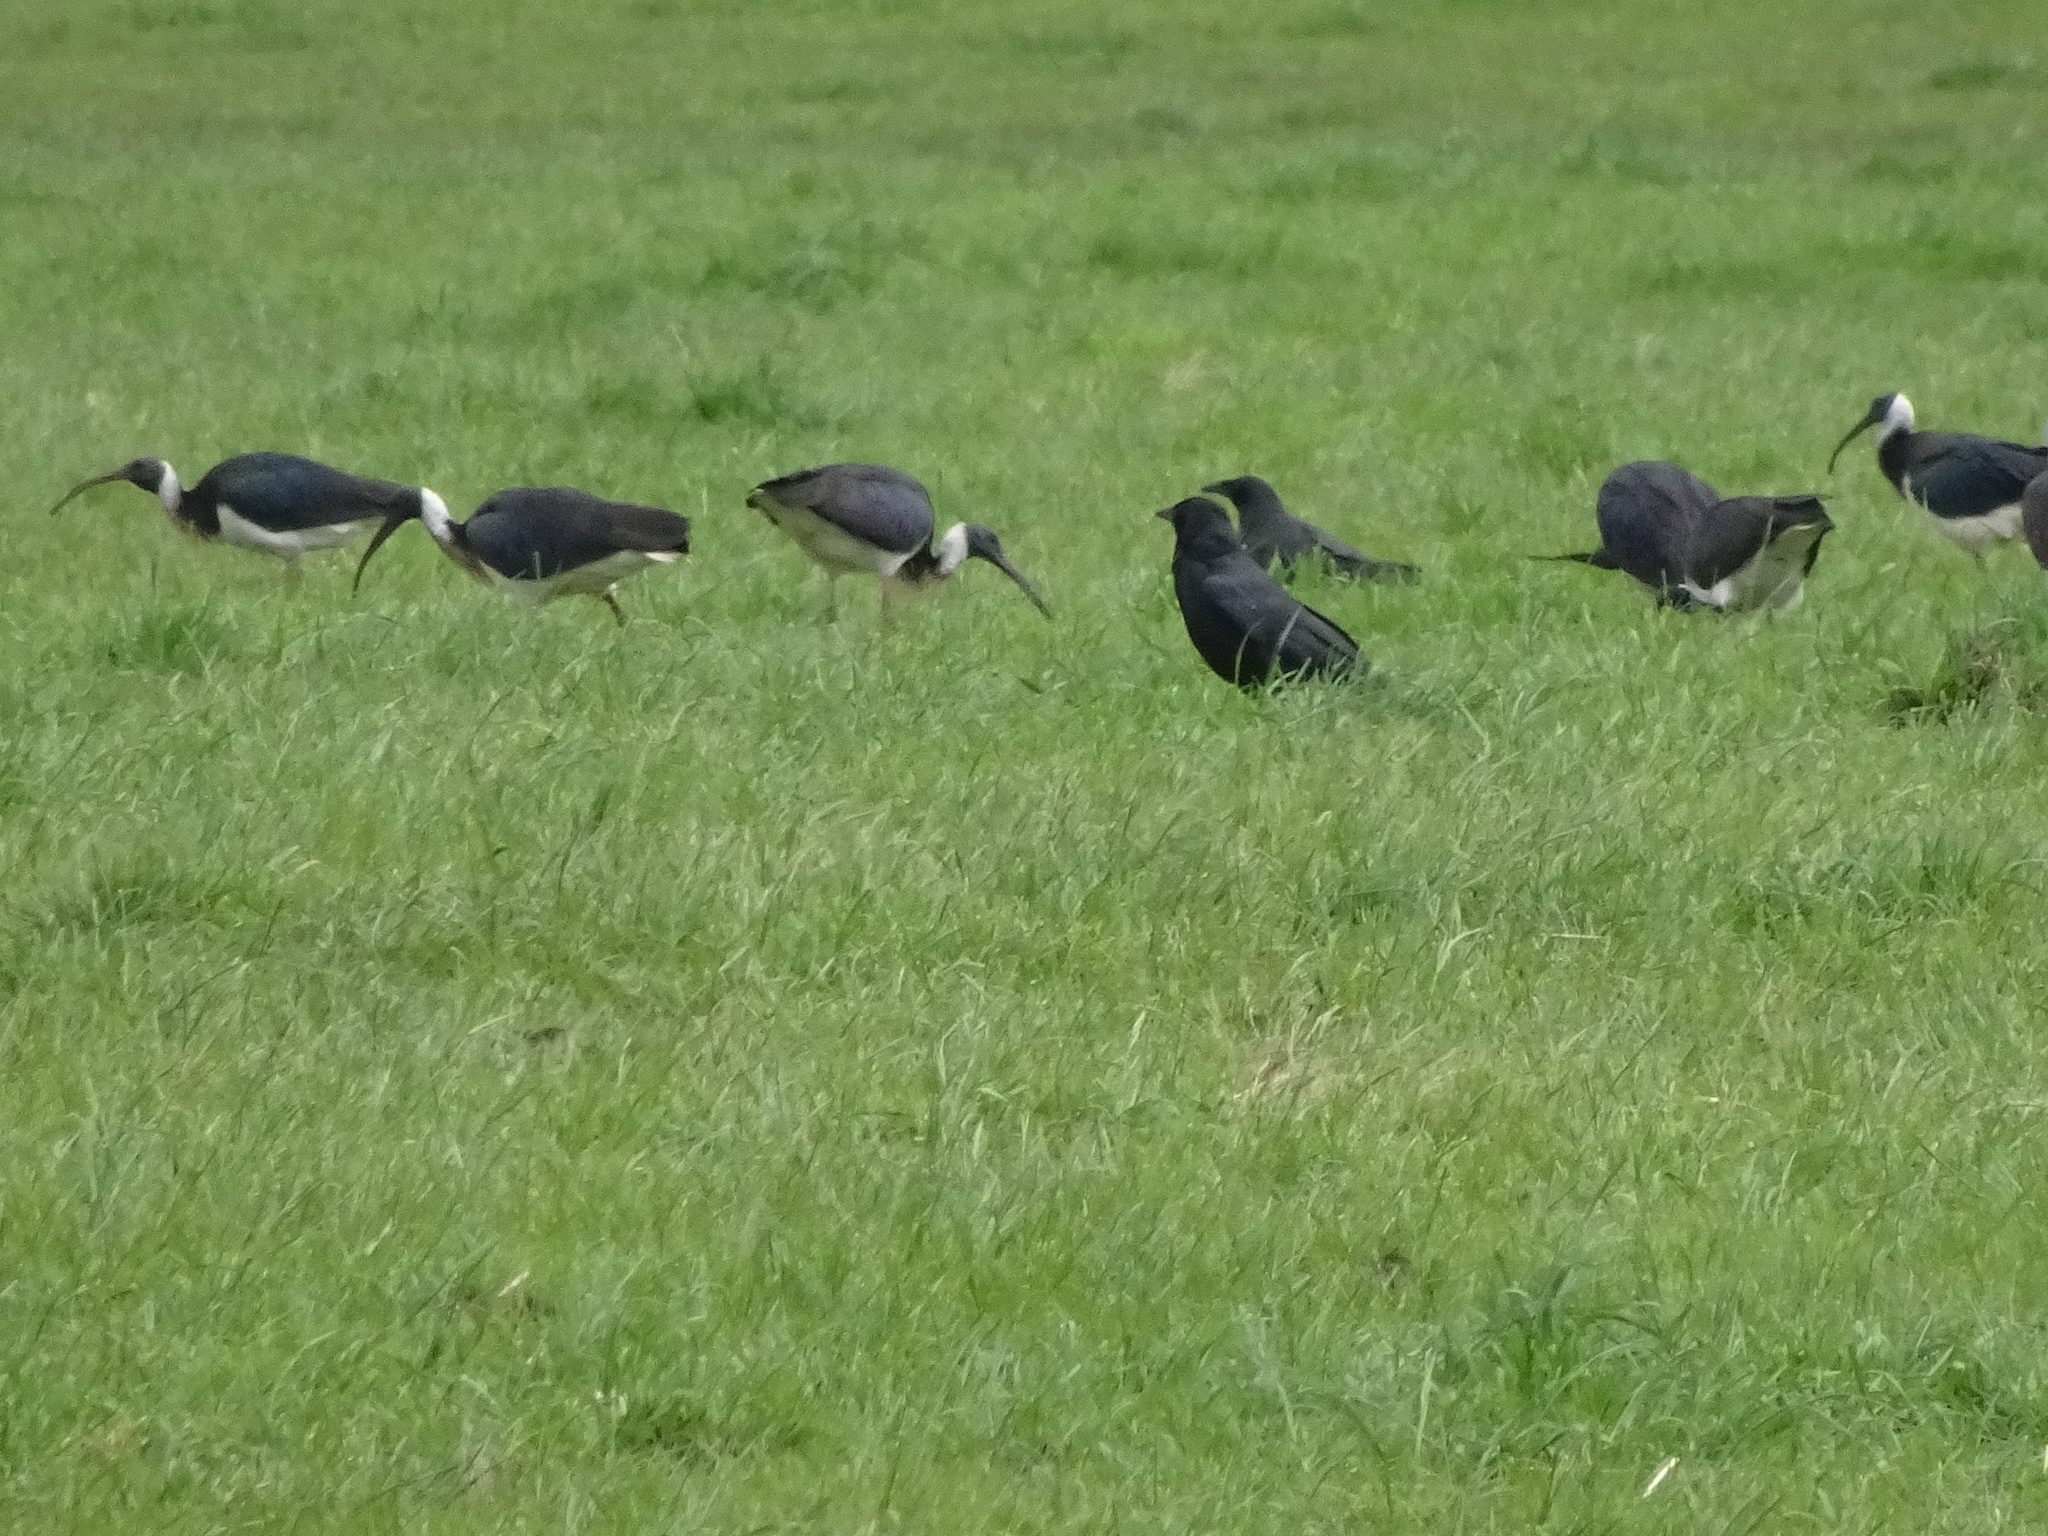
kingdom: Animalia
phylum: Chordata
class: Aves
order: Pelecaniformes
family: Threskiornithidae
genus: Threskiornis
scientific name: Threskiornis spinicollis
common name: Straw-necked ibis
